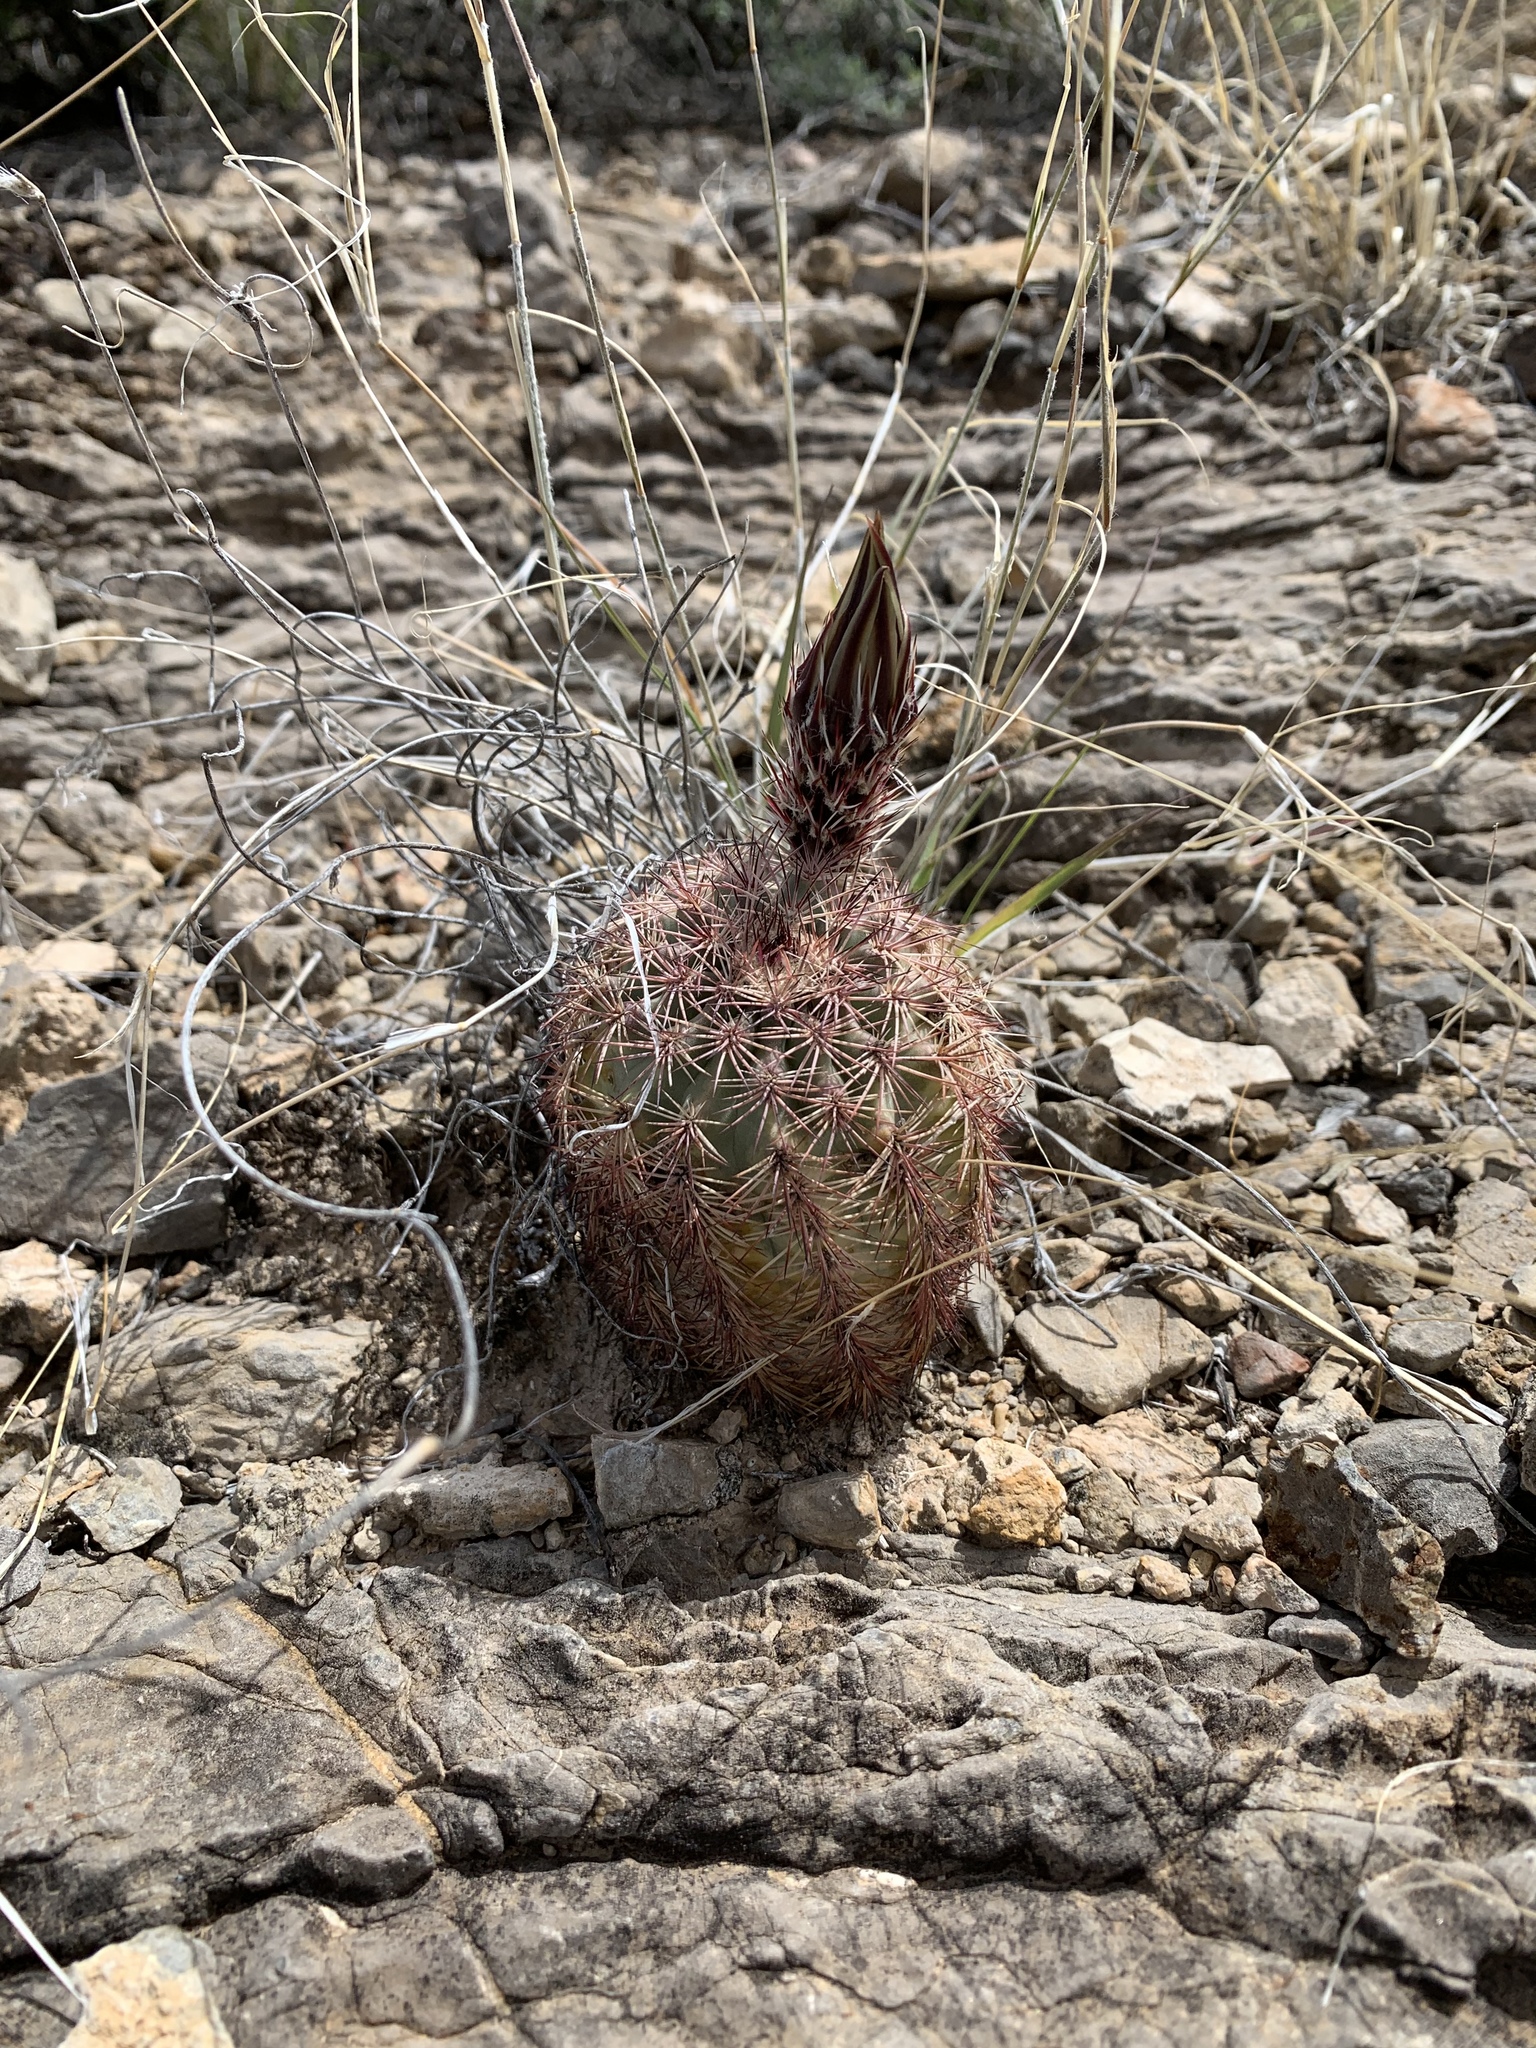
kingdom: Plantae
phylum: Tracheophyta
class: Magnoliopsida
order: Caryophyllales
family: Cactaceae
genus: Echinocereus
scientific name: Echinocereus dasyacanthus
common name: Spiny hedgehog cactus
